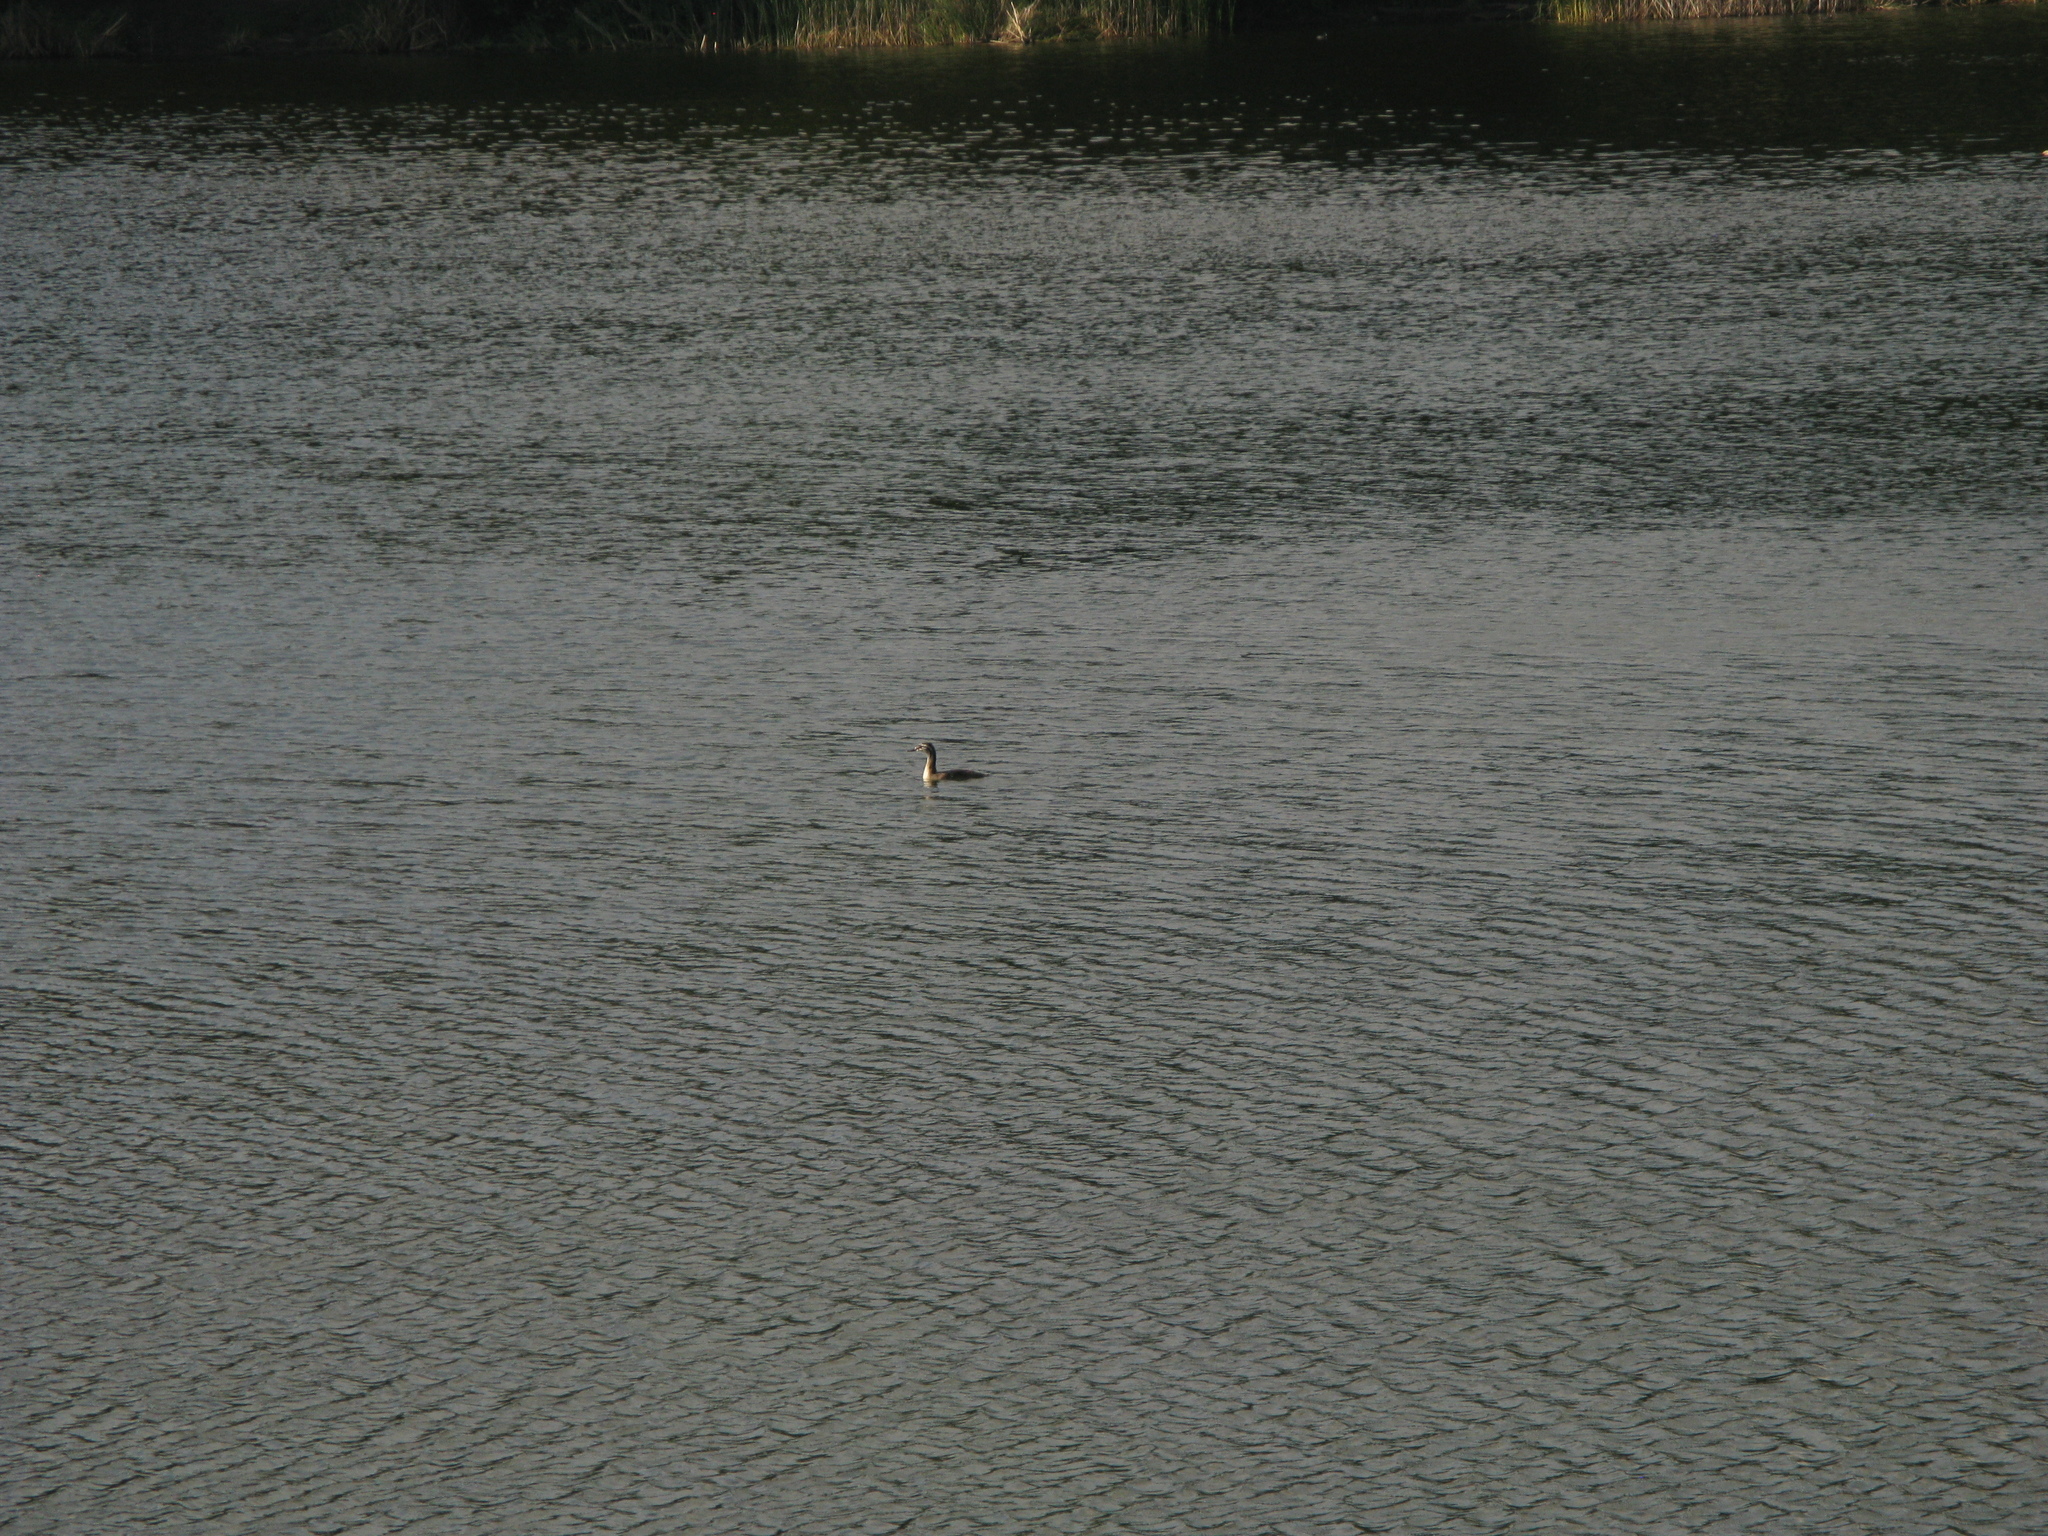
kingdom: Animalia
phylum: Chordata
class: Aves
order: Podicipediformes
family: Podicipedidae
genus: Podiceps
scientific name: Podiceps cristatus
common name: Great crested grebe
